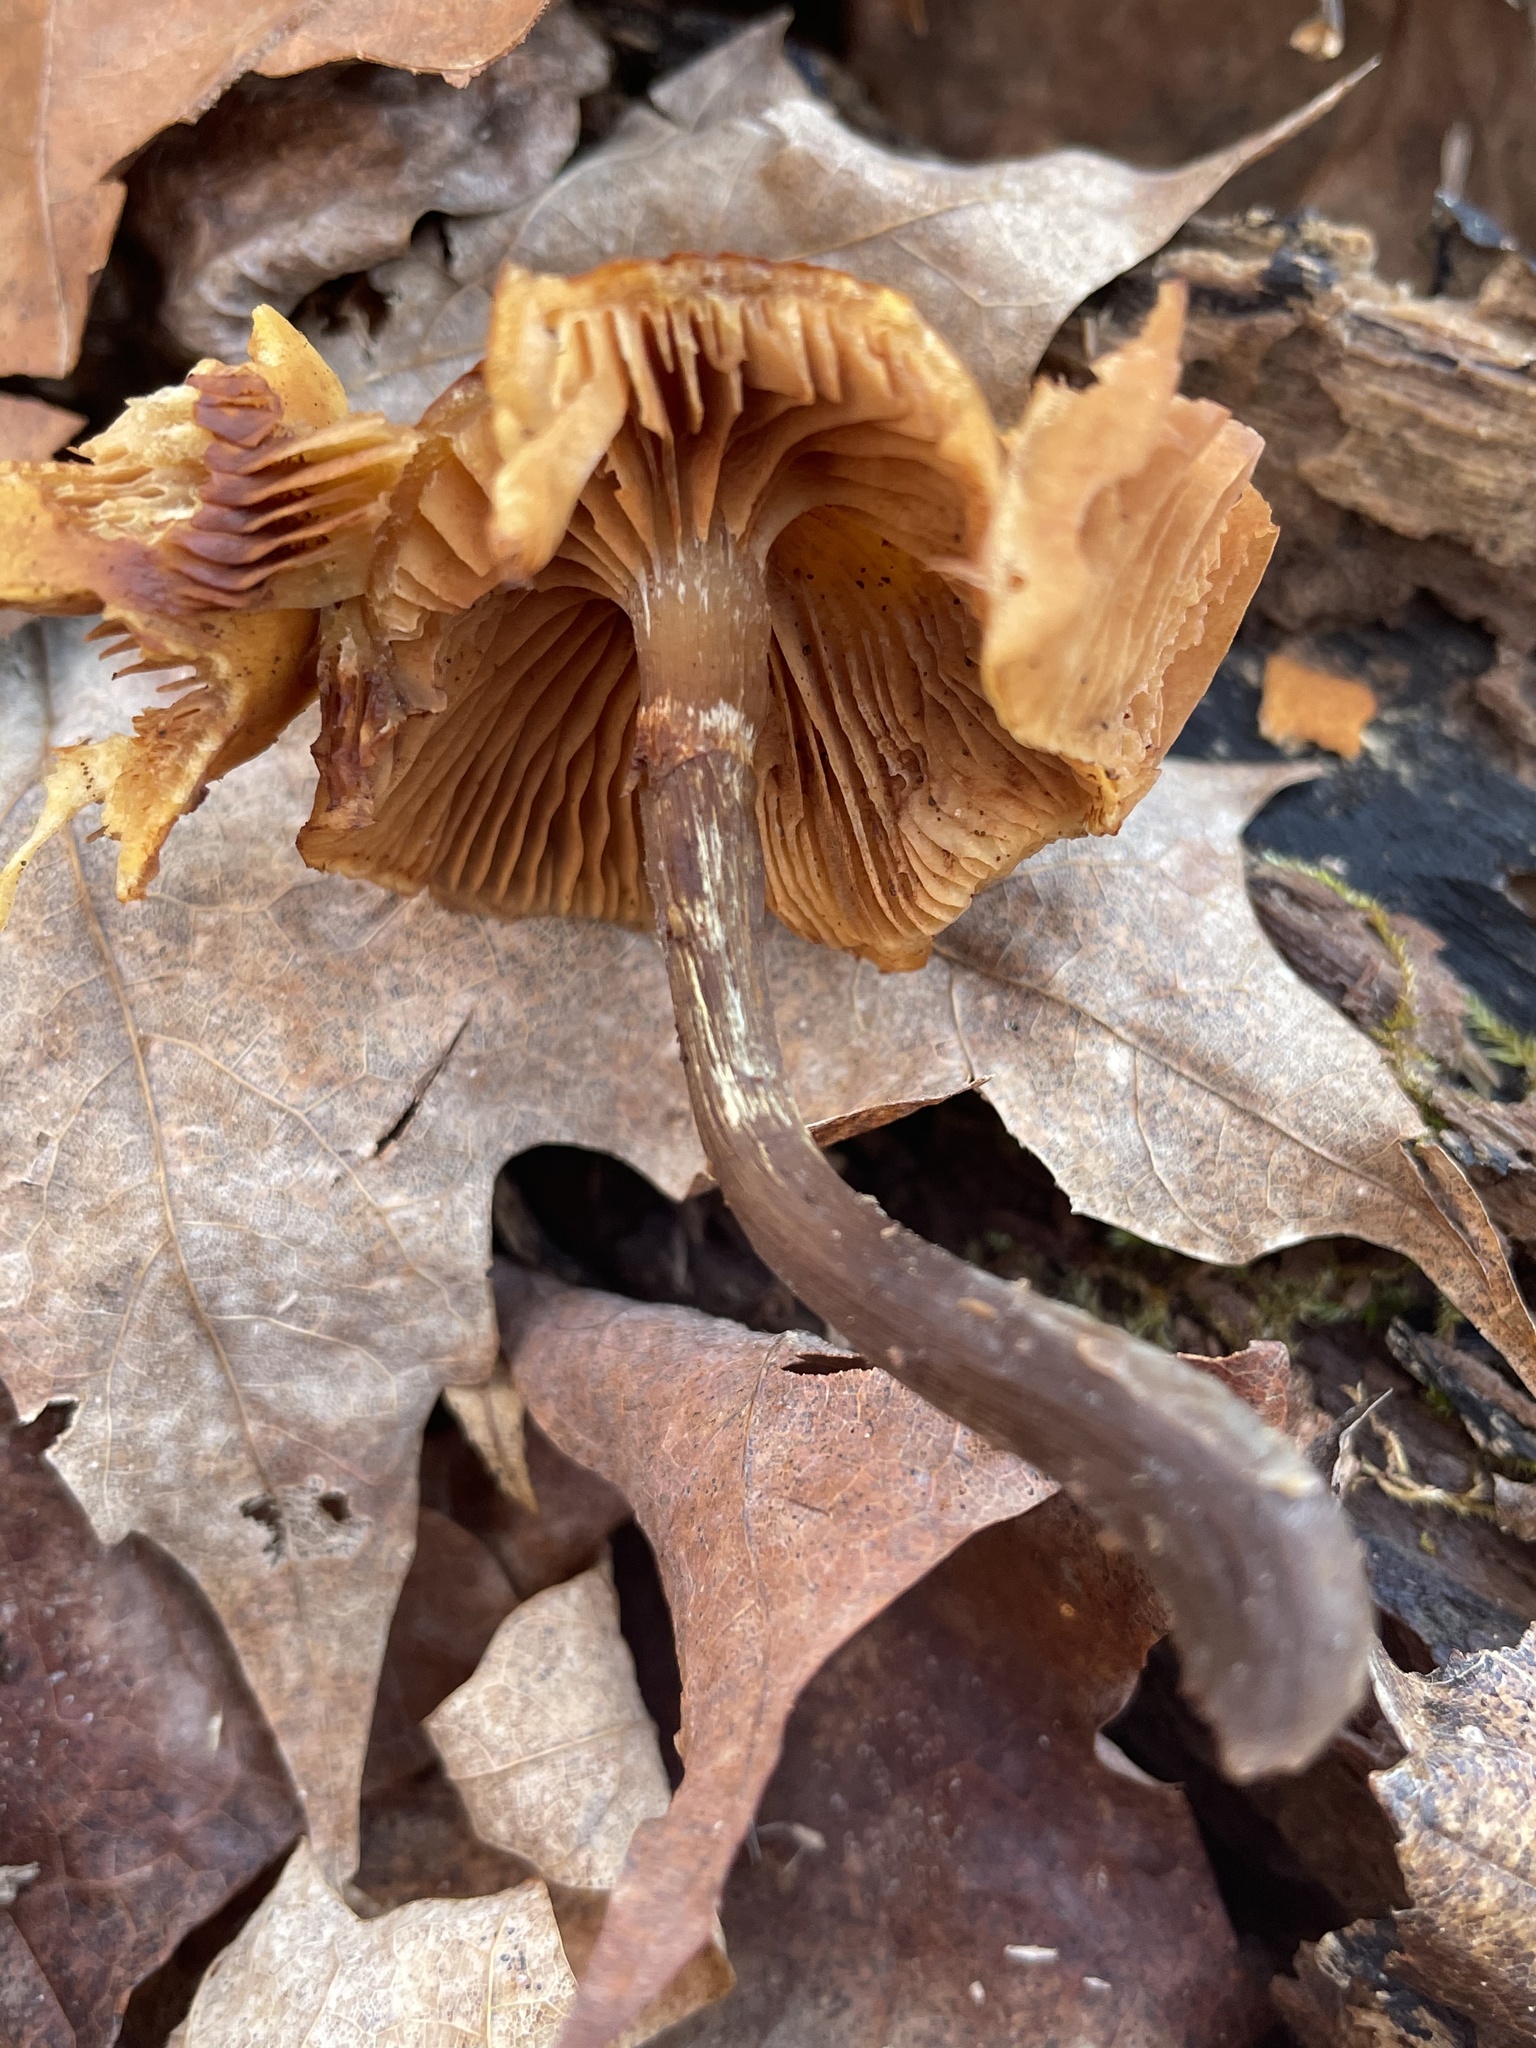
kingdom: Fungi
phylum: Basidiomycota
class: Agaricomycetes
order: Agaricales
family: Hymenogastraceae
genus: Galerina
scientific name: Galerina marginata
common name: Funeral bell
